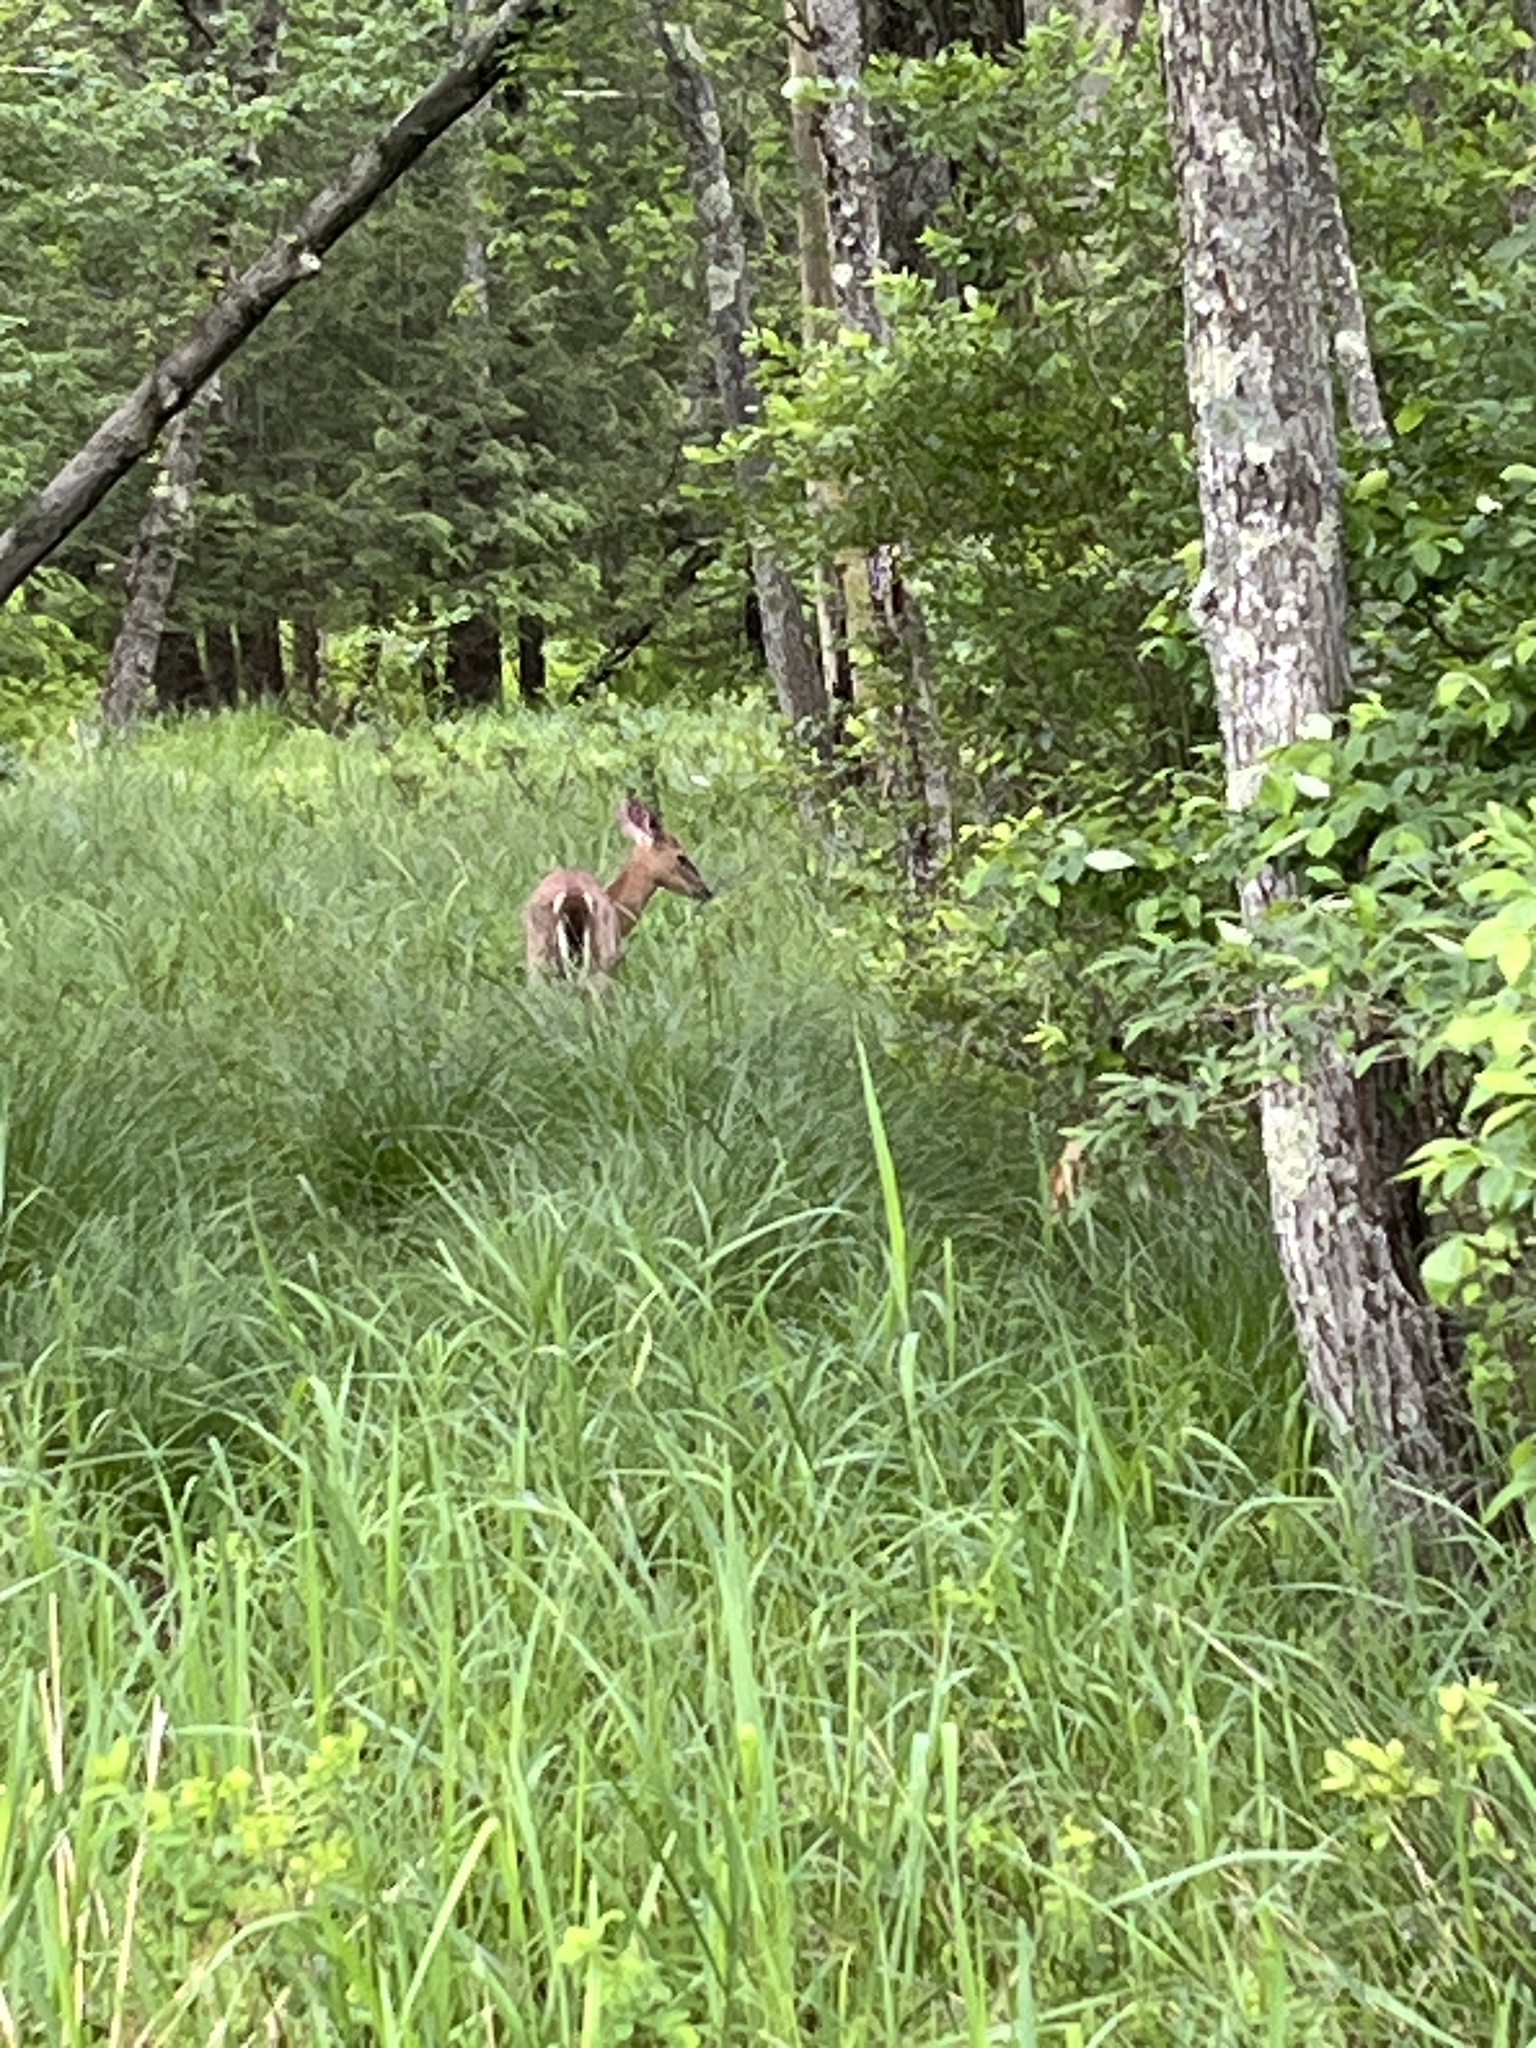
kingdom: Animalia
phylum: Chordata
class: Mammalia
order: Artiodactyla
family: Cervidae
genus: Odocoileus
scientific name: Odocoileus virginianus
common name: White-tailed deer
